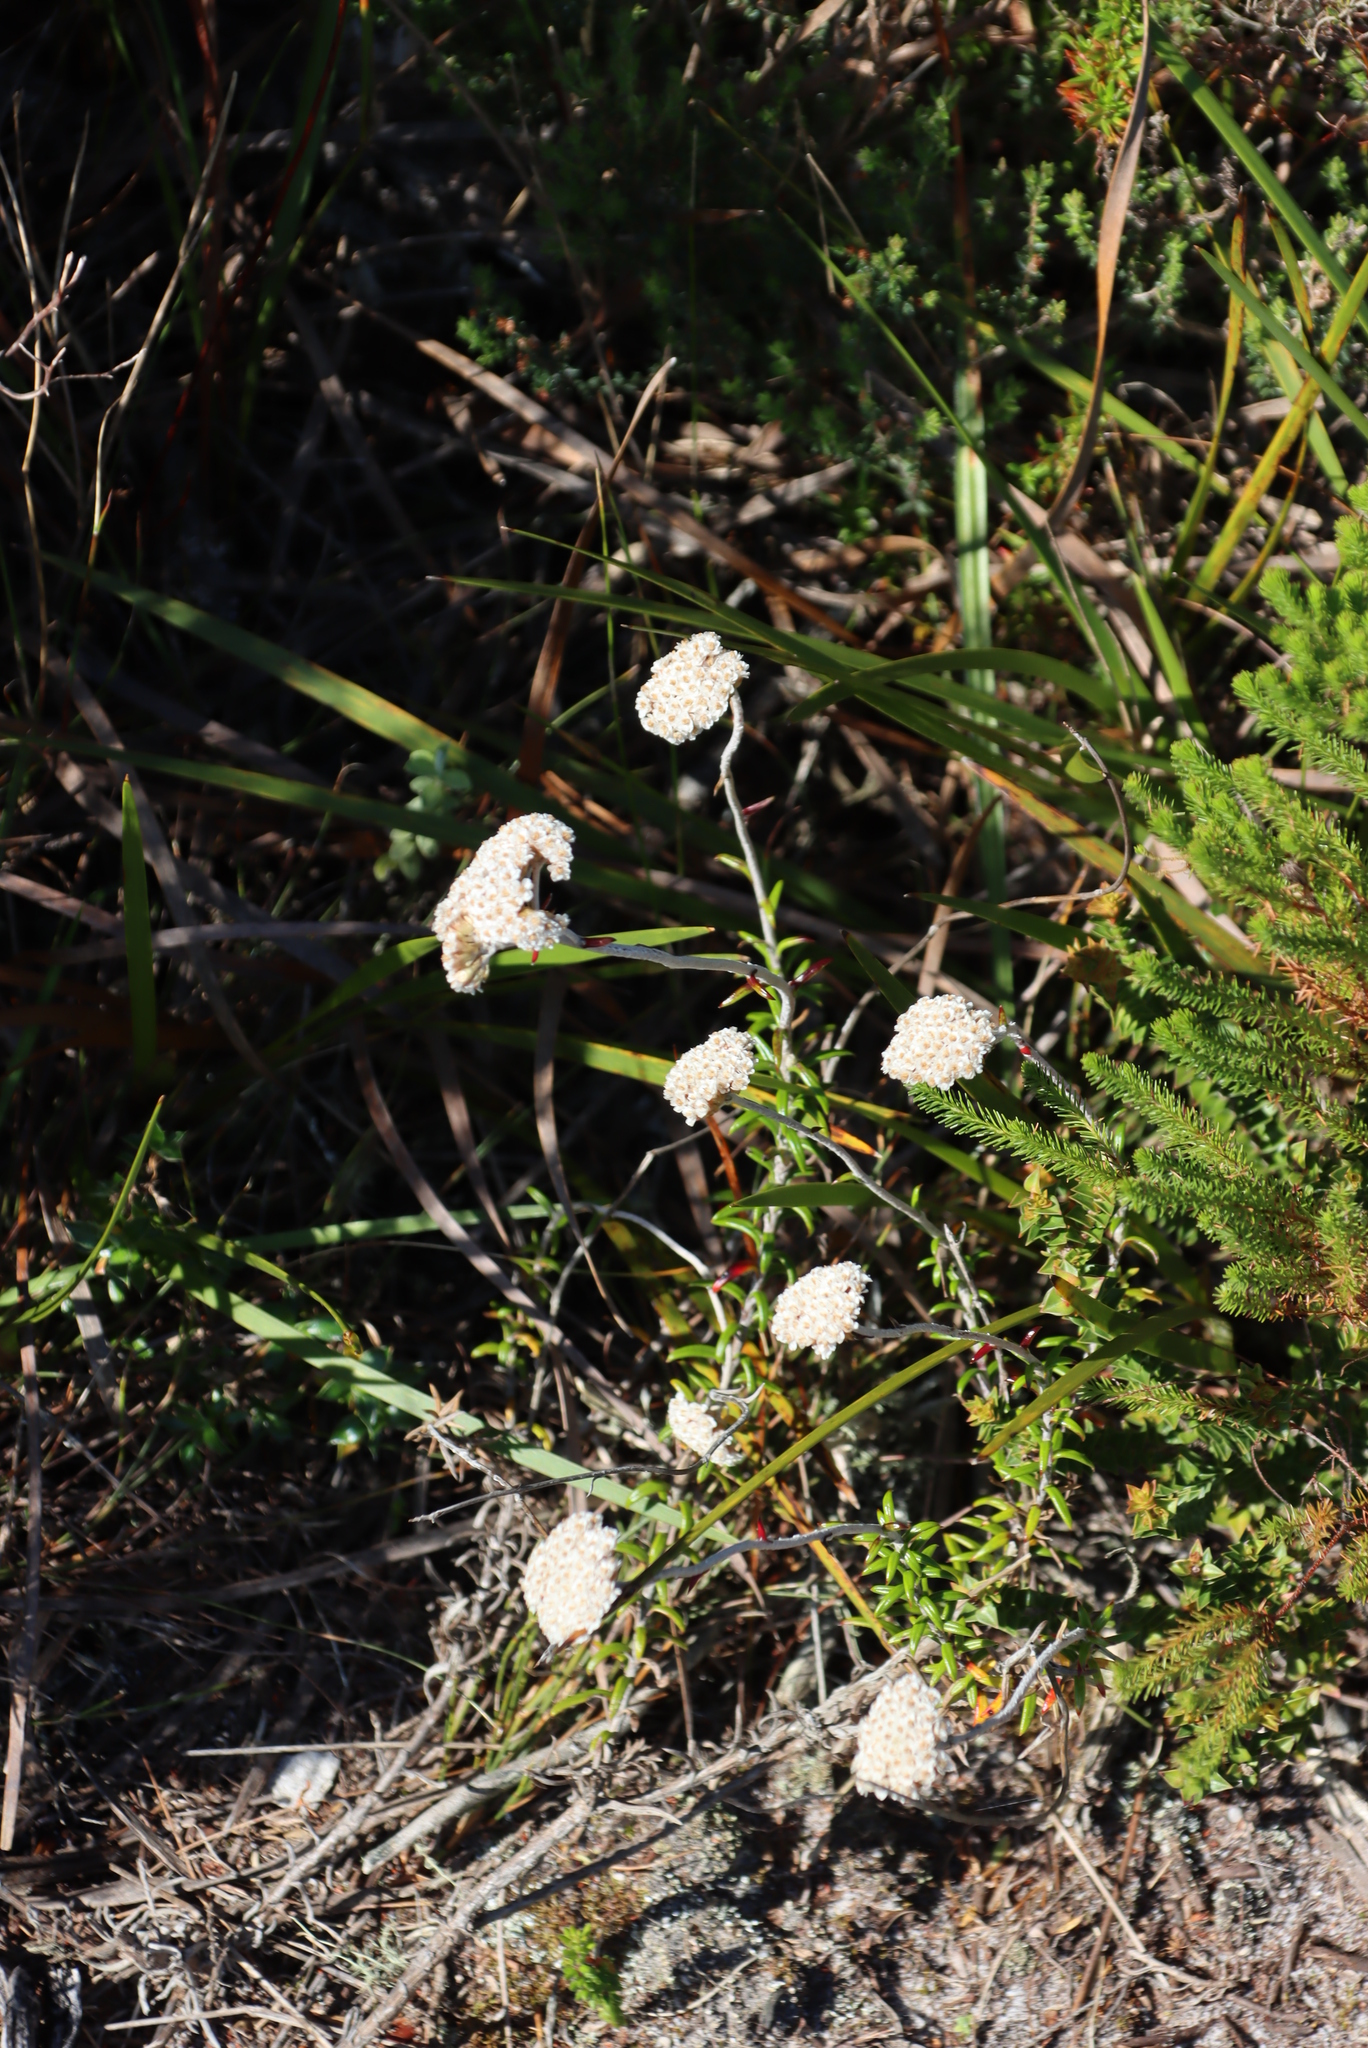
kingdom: Plantae
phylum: Tracheophyta
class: Magnoliopsida
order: Asterales
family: Asteraceae
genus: Anaxeton
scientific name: Anaxeton arborescens
